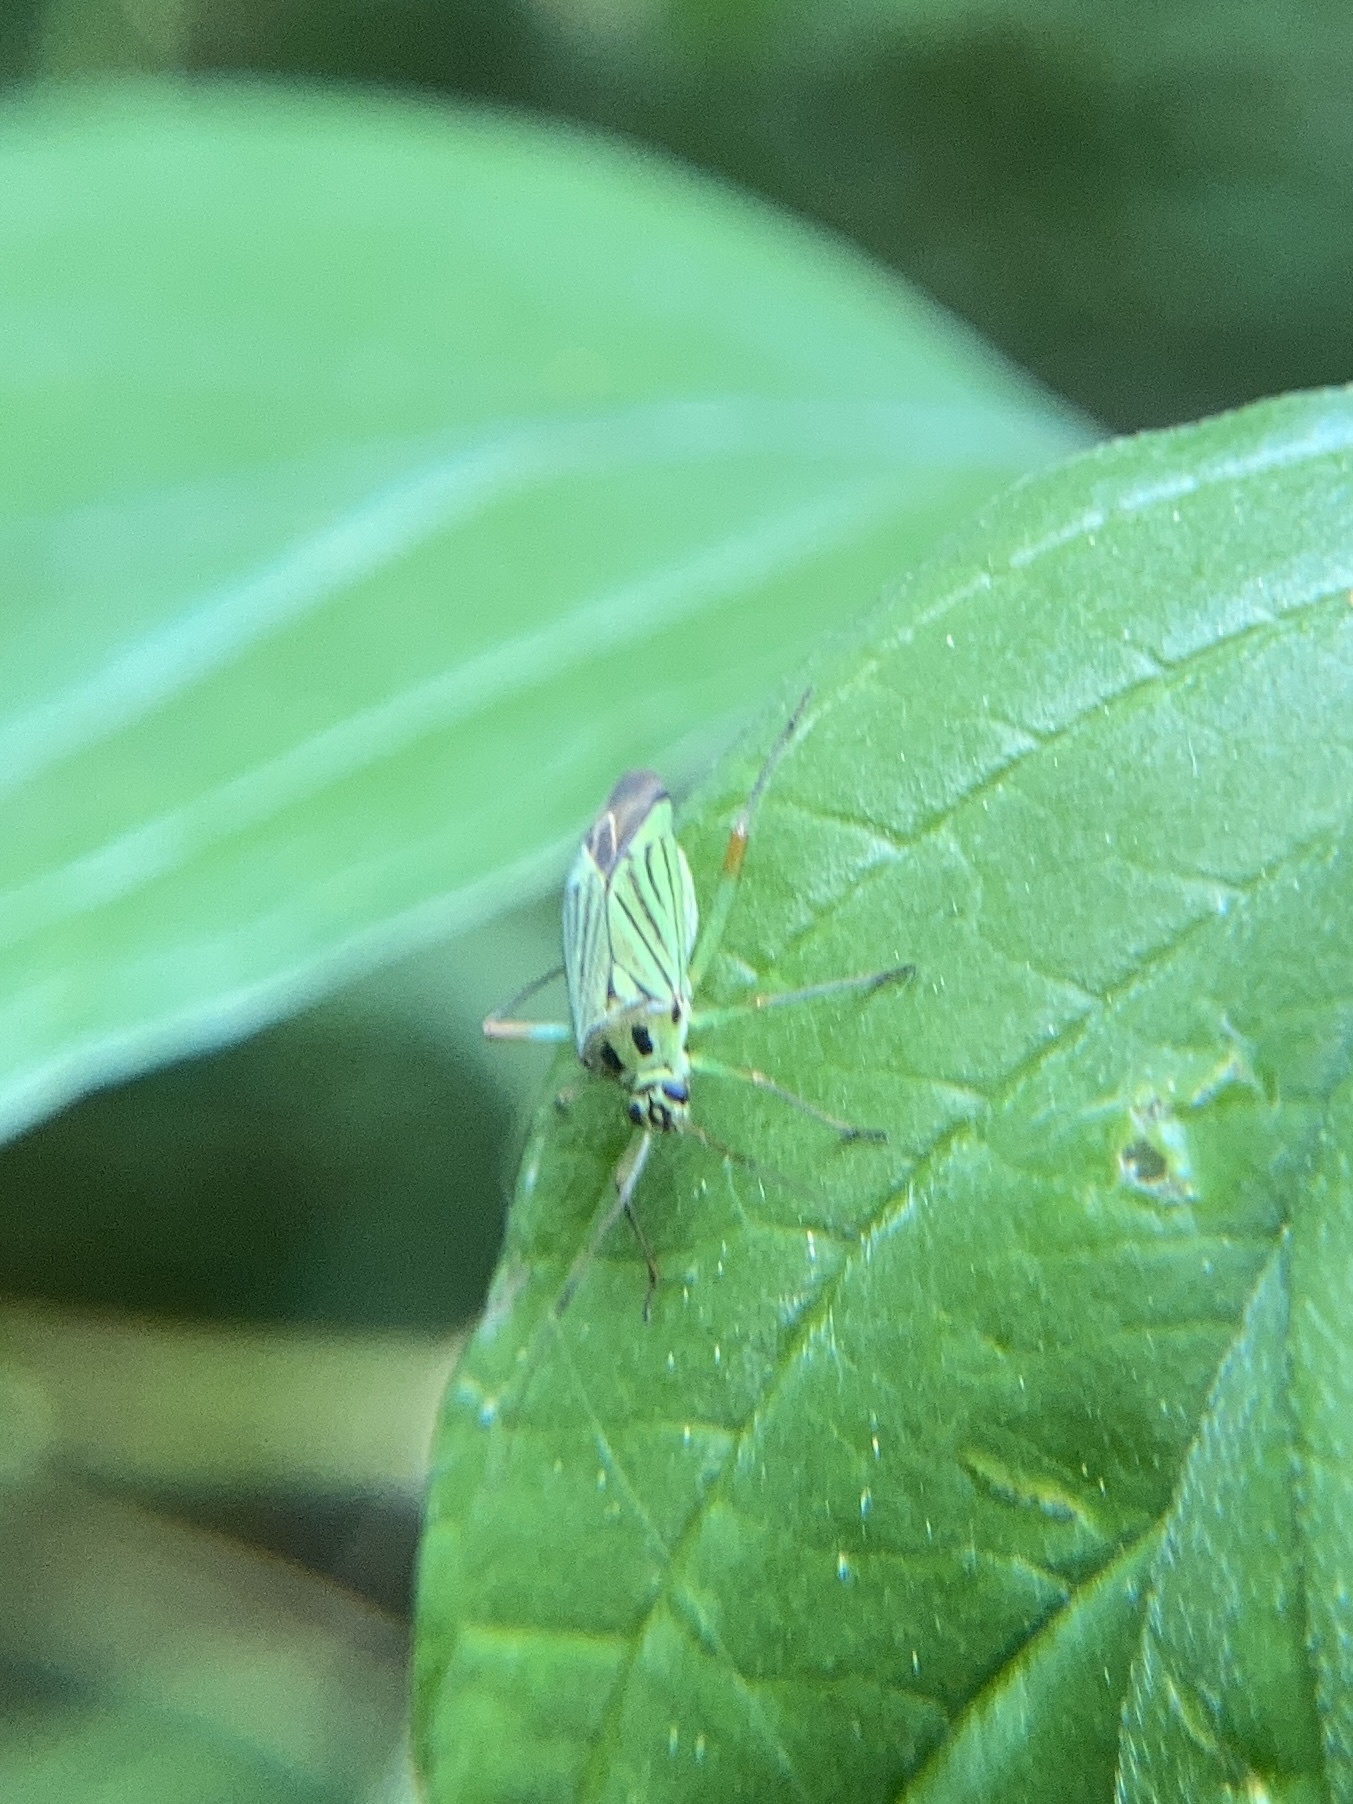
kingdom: Animalia
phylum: Arthropoda
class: Insecta
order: Hemiptera
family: Miridae
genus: Mermitelocerus
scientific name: Mermitelocerus schmidtii
